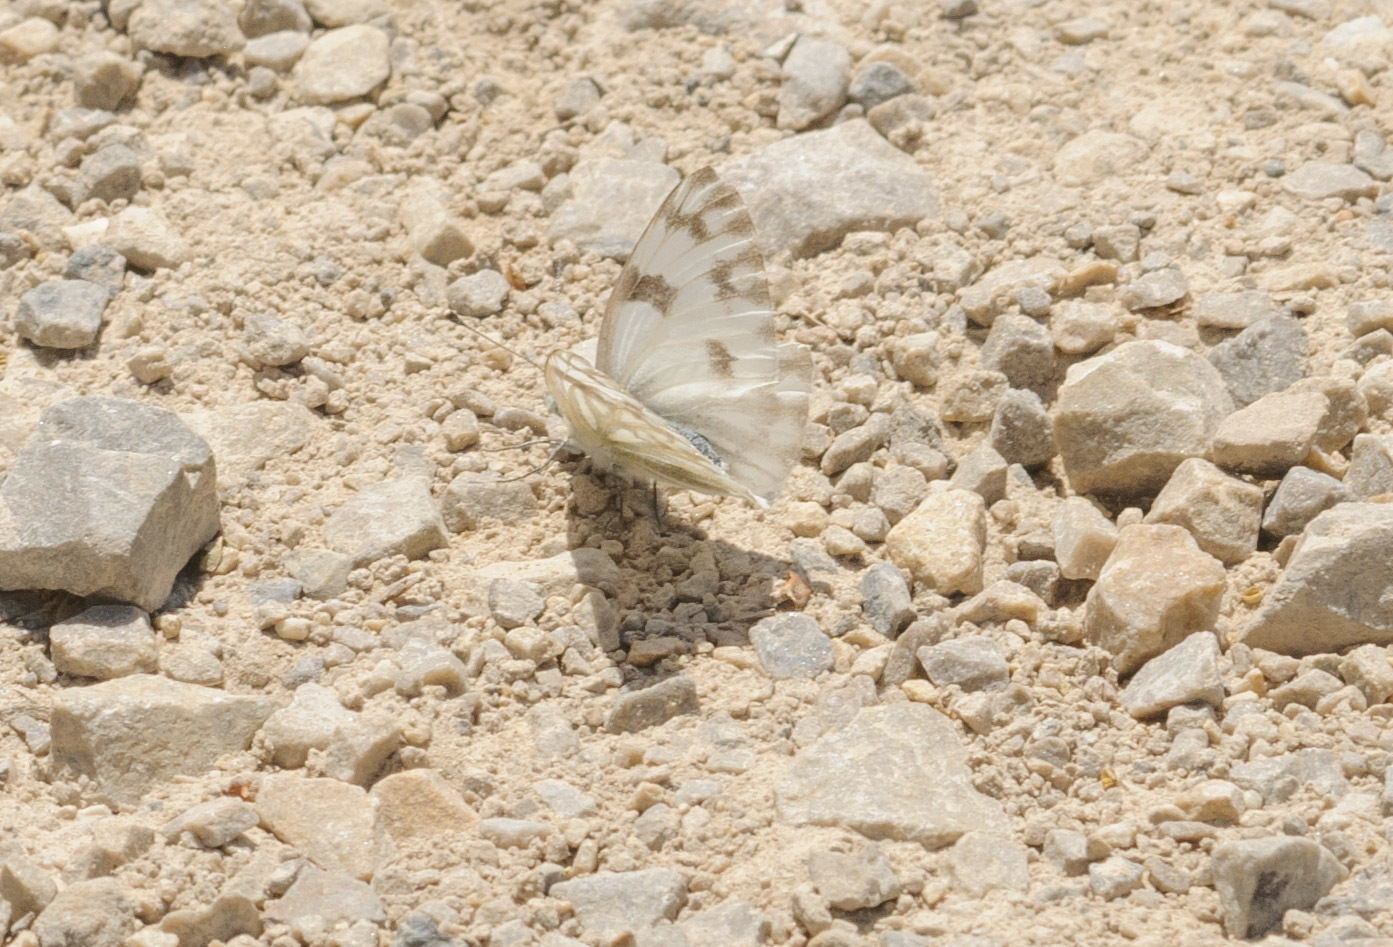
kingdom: Animalia
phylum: Arthropoda
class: Insecta
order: Lepidoptera
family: Pieridae
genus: Pontia
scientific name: Pontia protodice
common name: Checkered white
